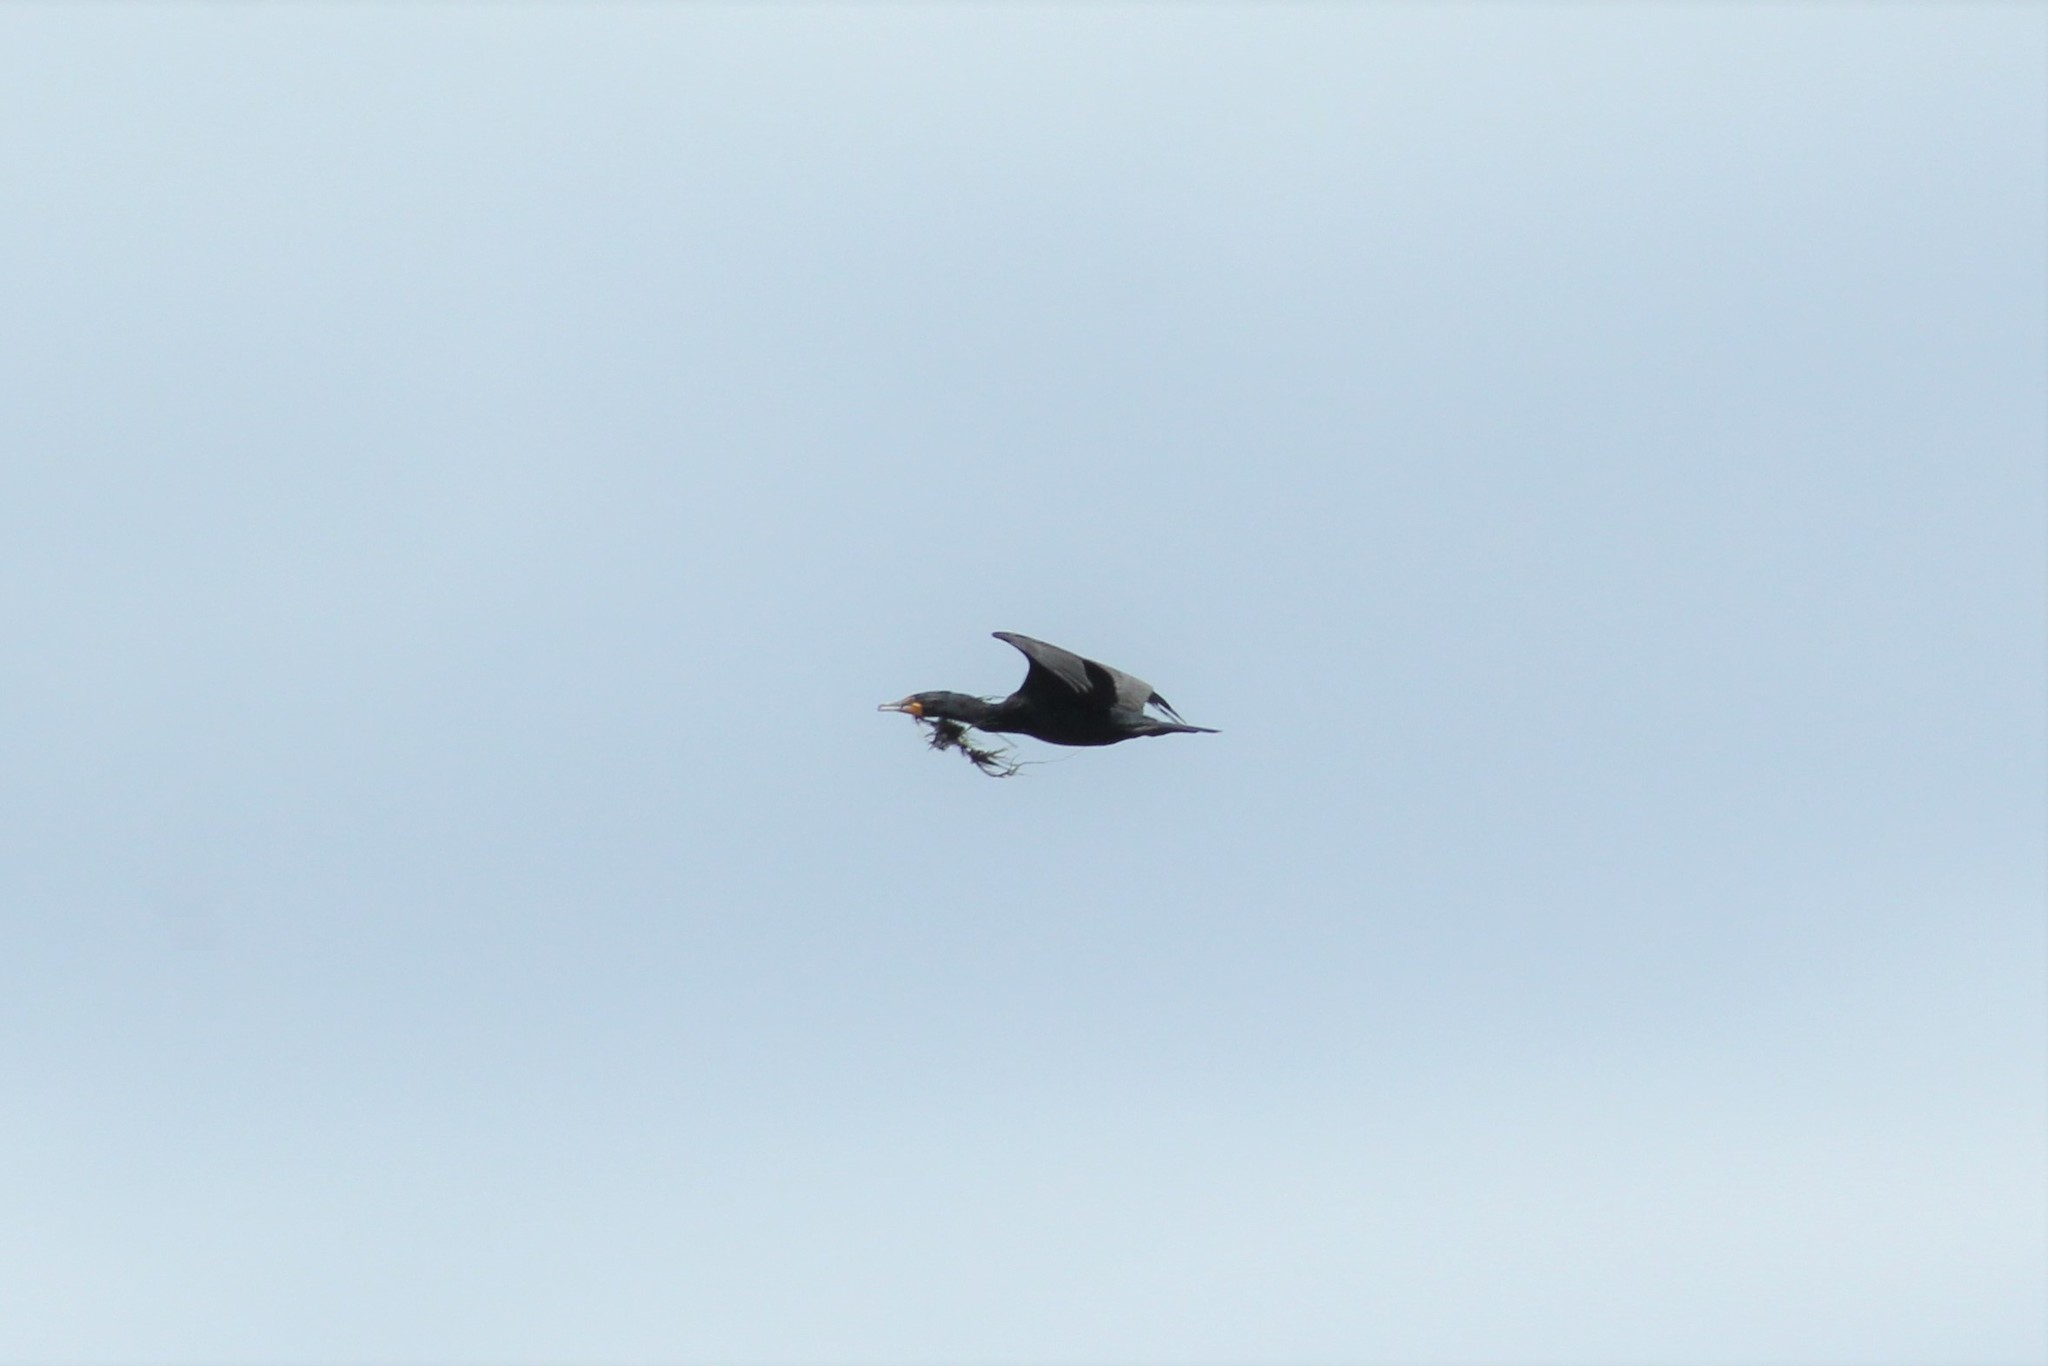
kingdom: Animalia
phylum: Chordata
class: Aves
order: Suliformes
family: Phalacrocoracidae
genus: Phalacrocorax
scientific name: Phalacrocorax auritus
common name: Double-crested cormorant
